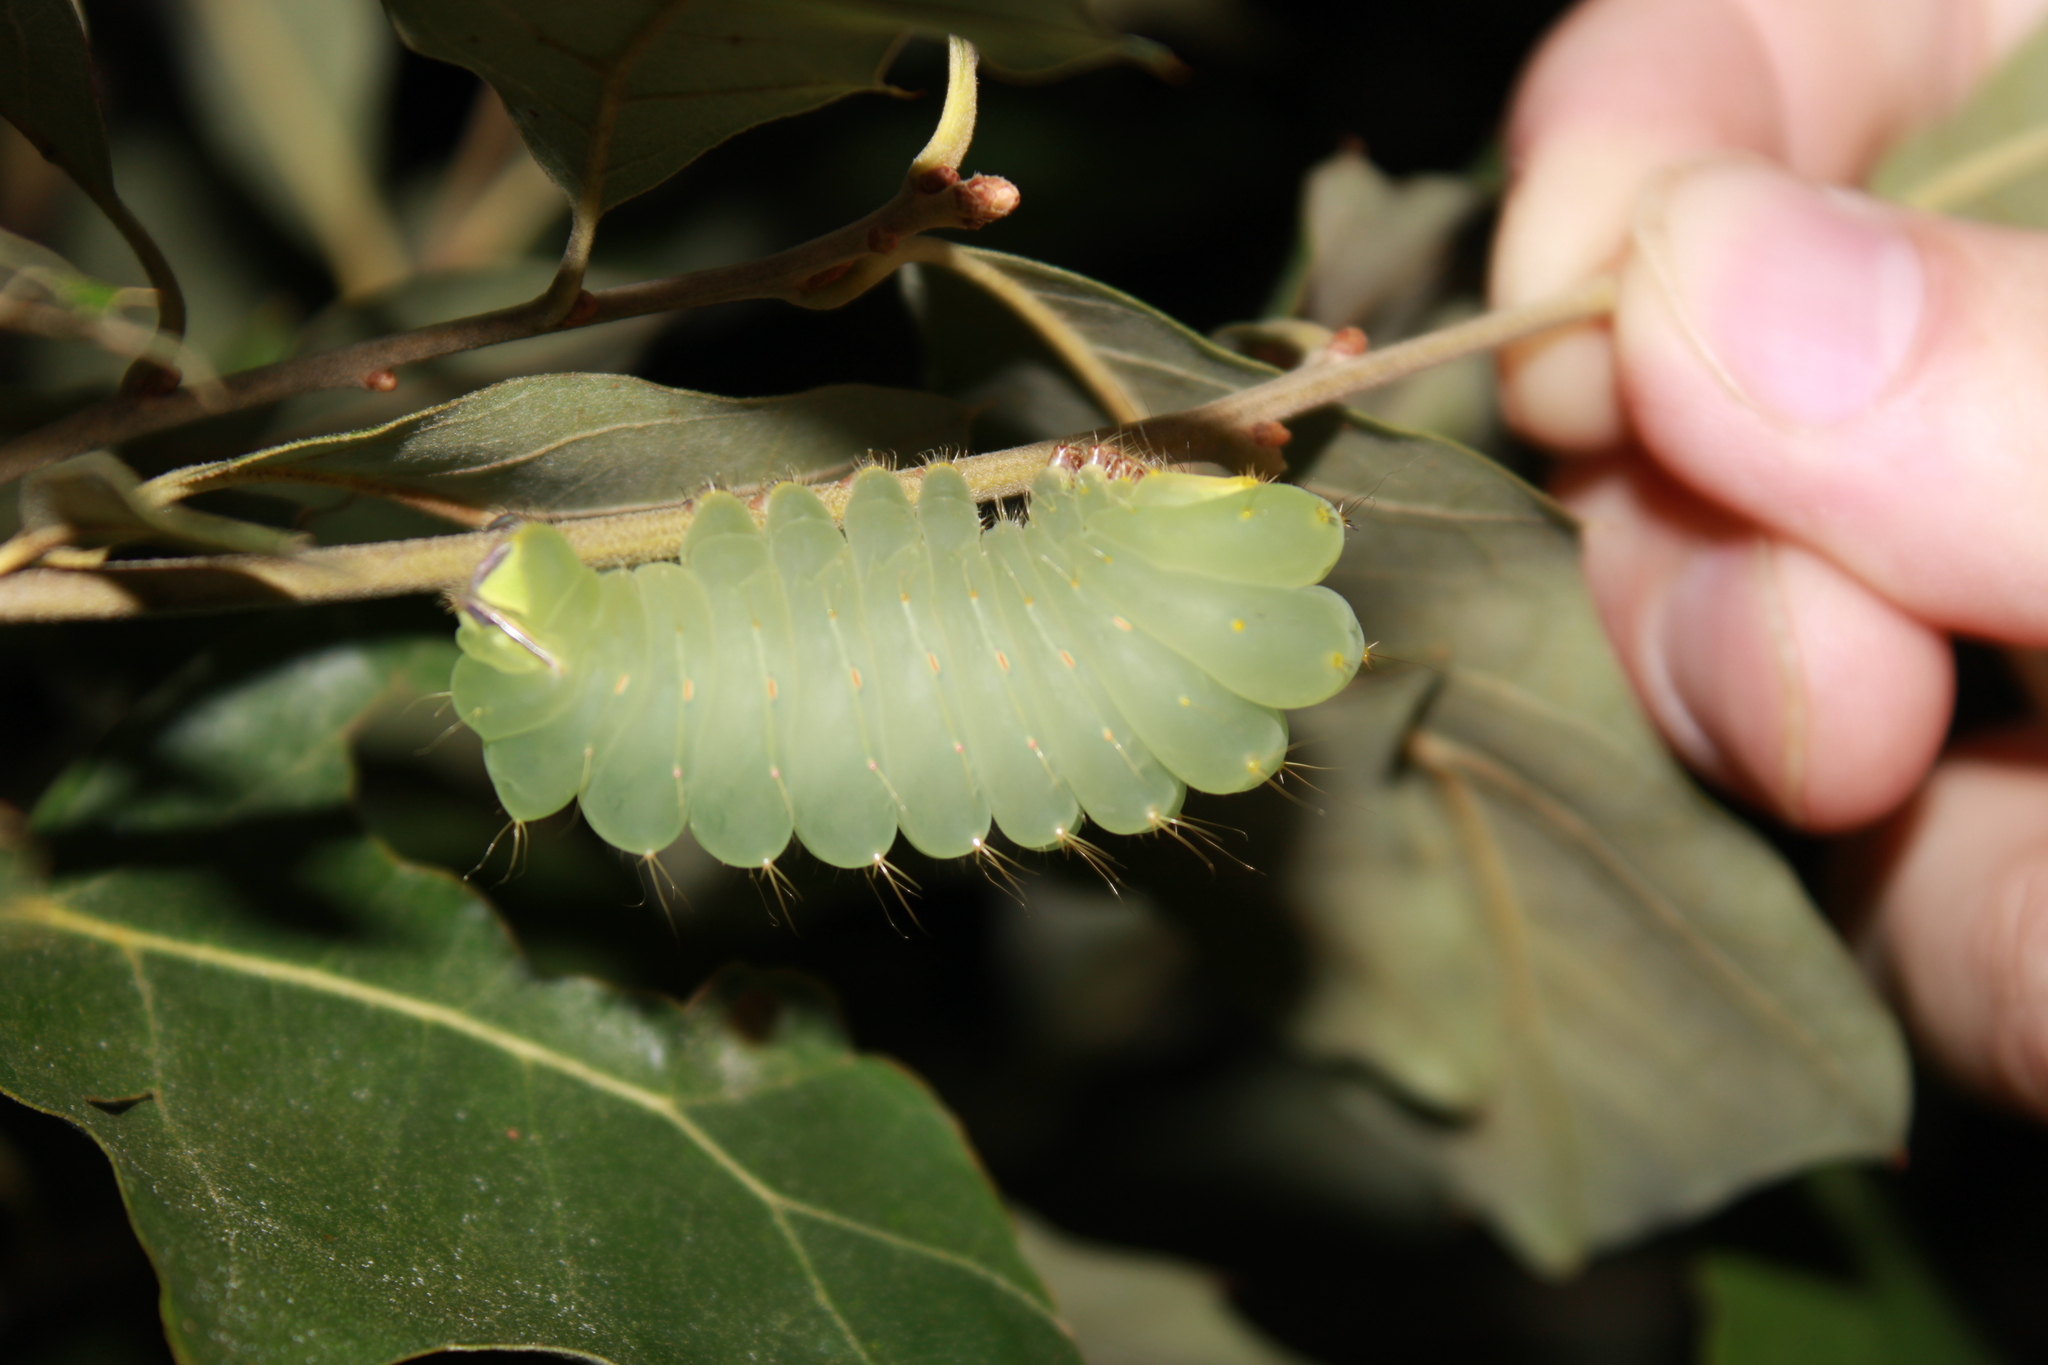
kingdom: Animalia
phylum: Arthropoda
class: Insecta
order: Lepidoptera
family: Saturniidae
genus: Antheraea
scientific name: Antheraea polyphemus
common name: Polyphemus moth
